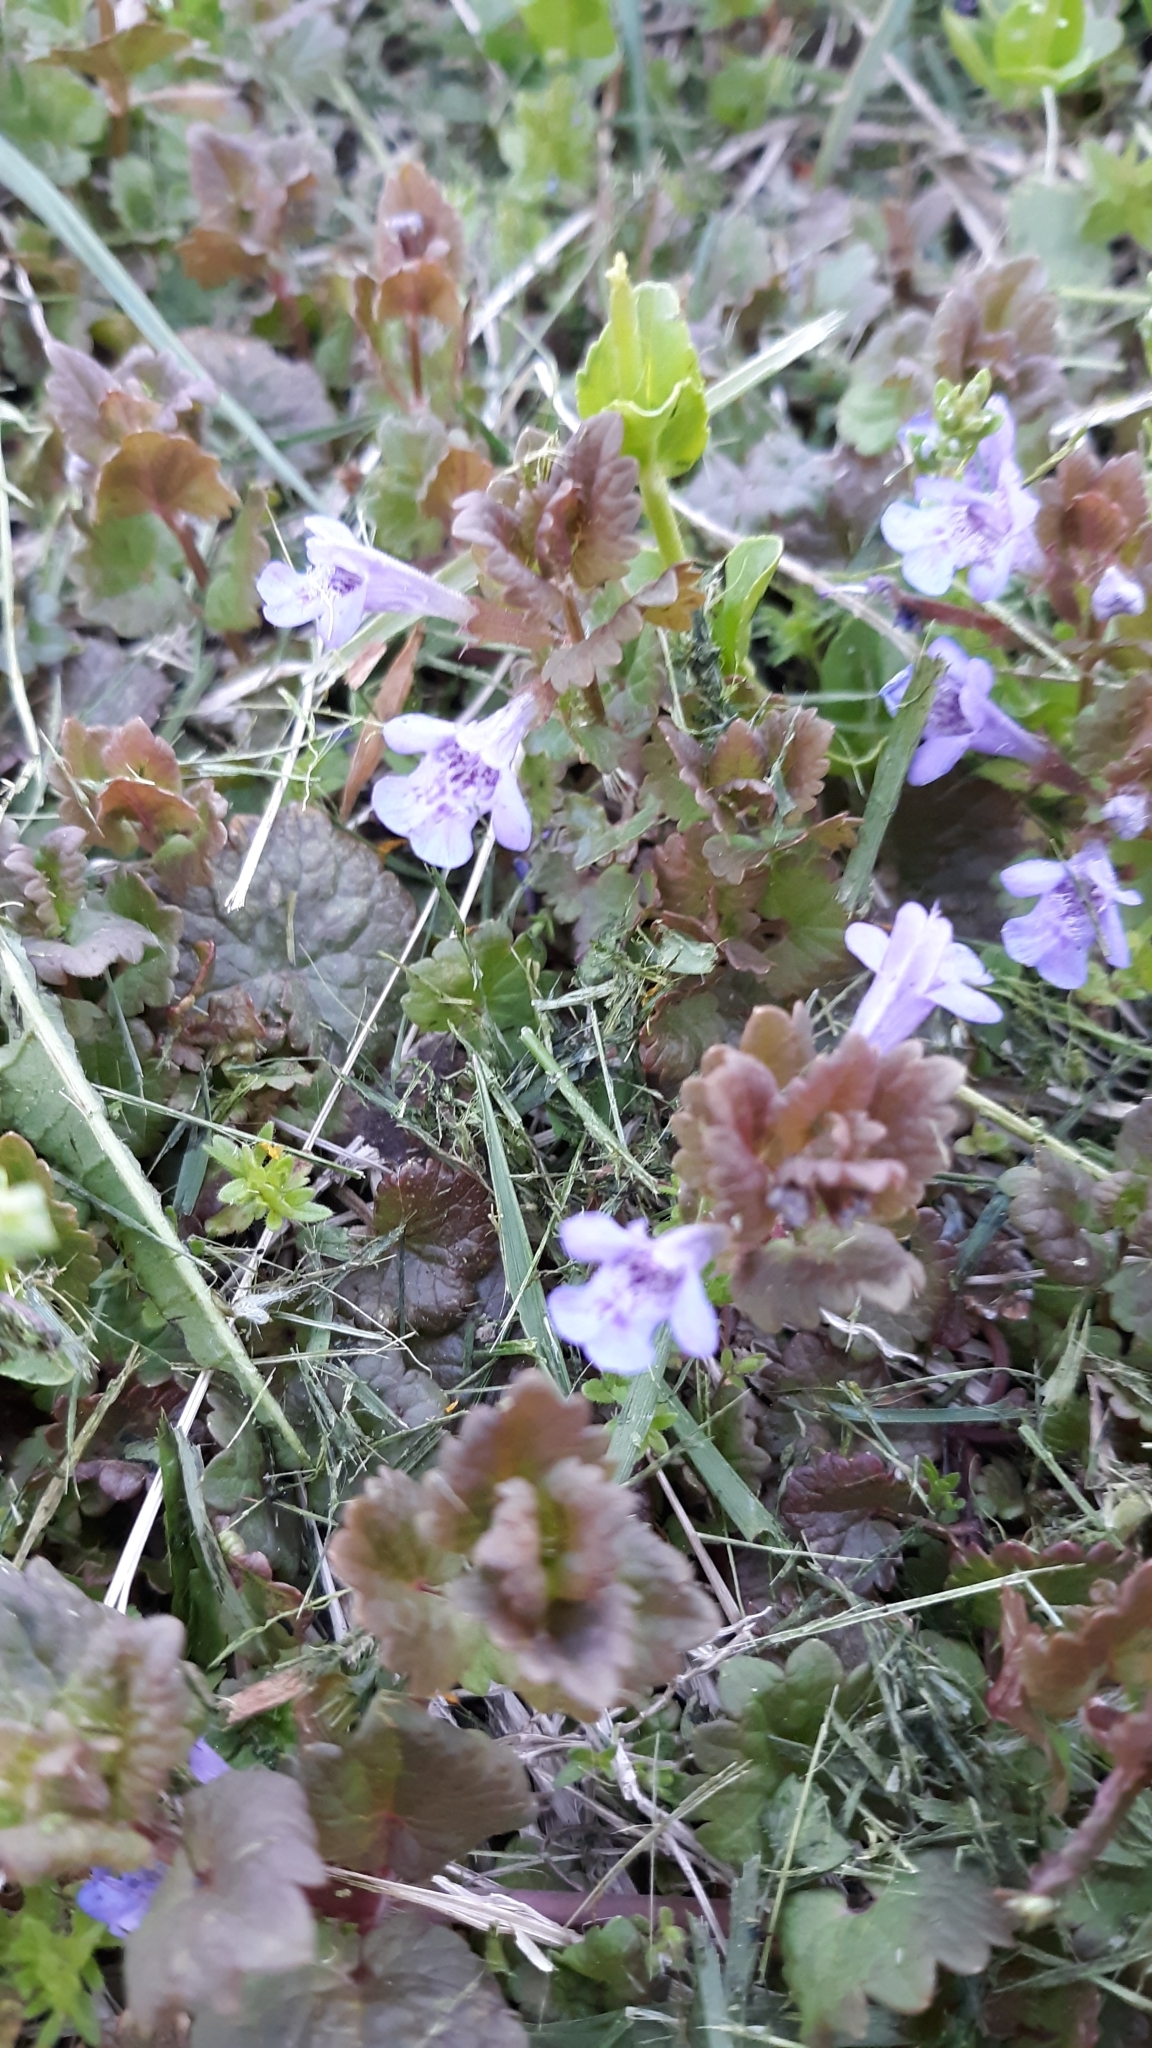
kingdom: Plantae
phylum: Tracheophyta
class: Magnoliopsida
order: Lamiales
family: Lamiaceae
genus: Glechoma
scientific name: Glechoma hederacea
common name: Ground ivy
